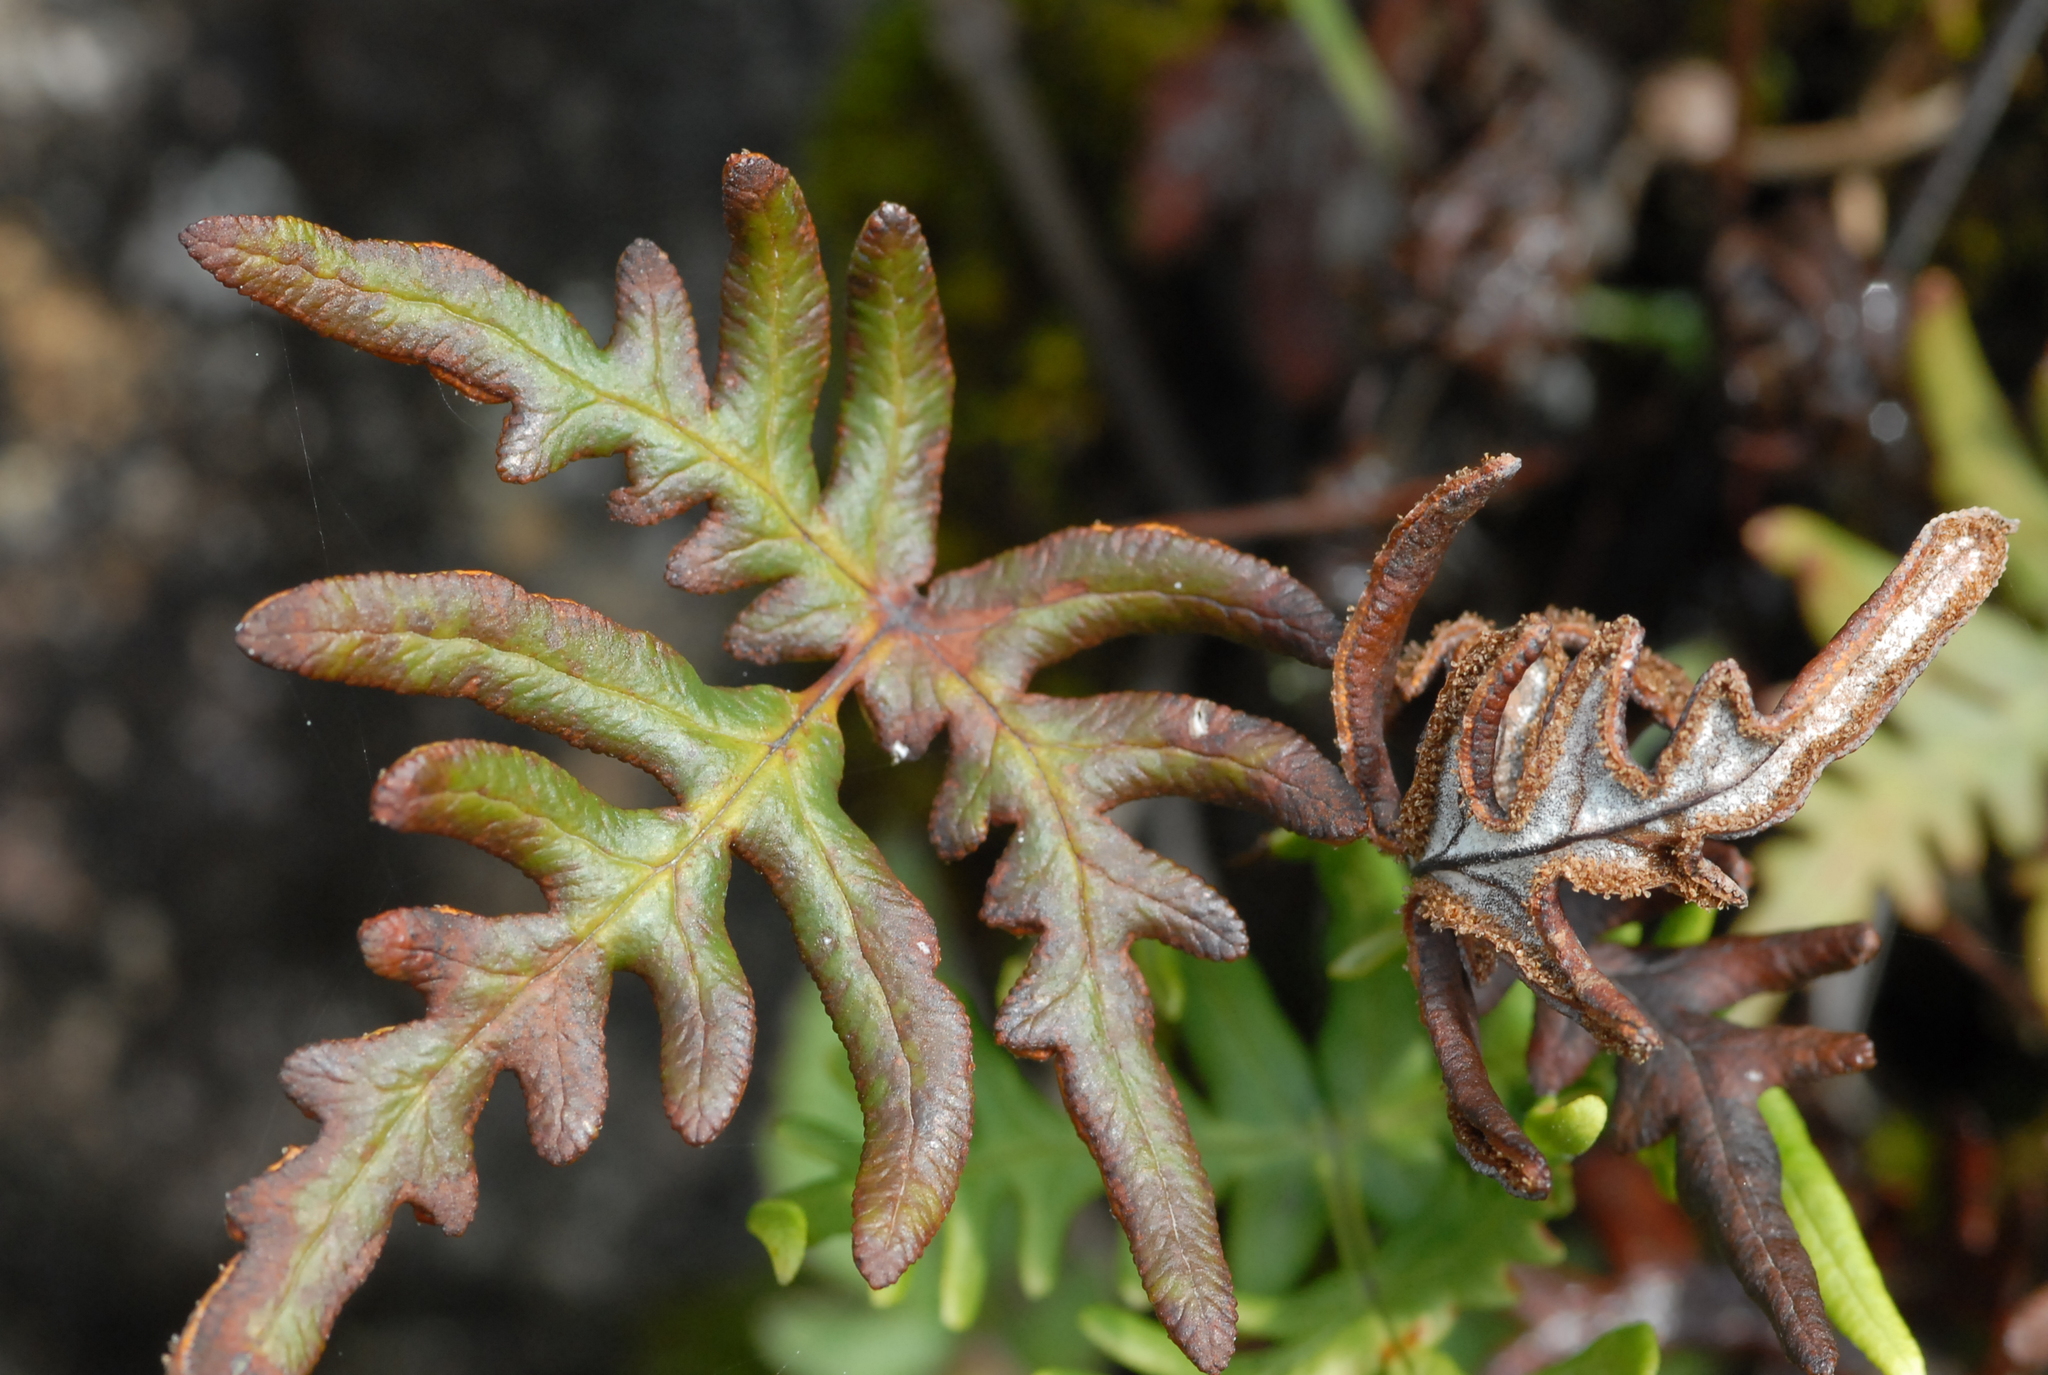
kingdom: Plantae
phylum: Tracheophyta
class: Polypodiopsida
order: Polypodiales
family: Pteridaceae
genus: Aleuritopteris
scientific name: Aleuritopteris argentea
